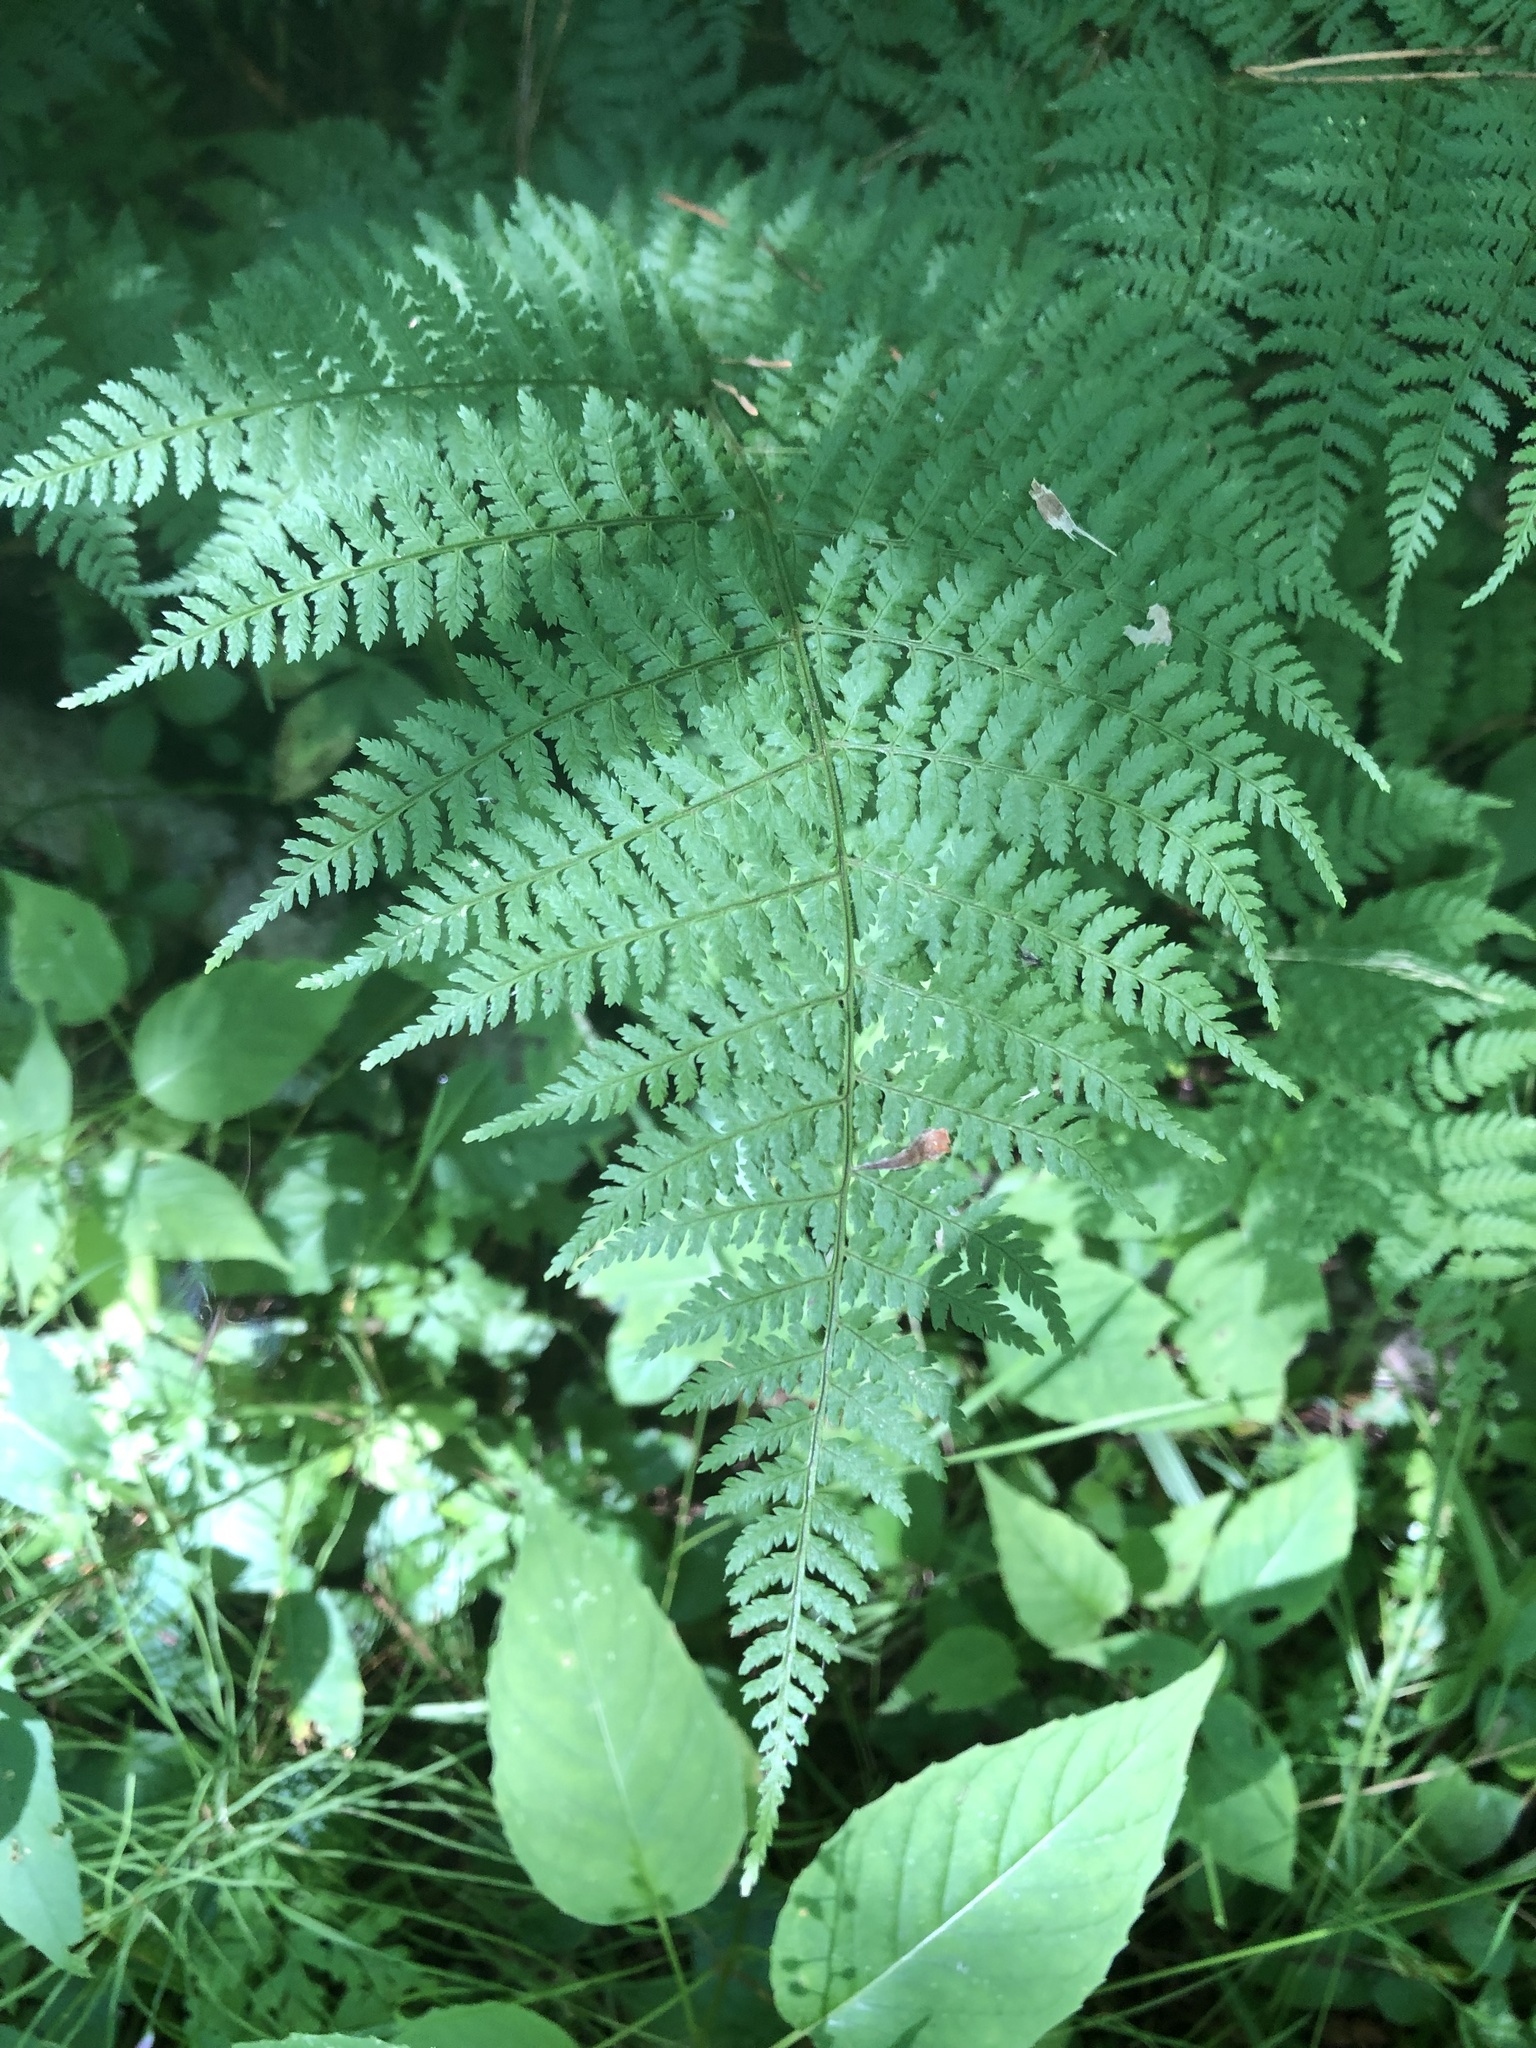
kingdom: Plantae
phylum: Tracheophyta
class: Polypodiopsida
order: Polypodiales
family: Dryopteridaceae
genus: Dryopteris
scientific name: Dryopteris intermedia
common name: Evergreen wood fern
